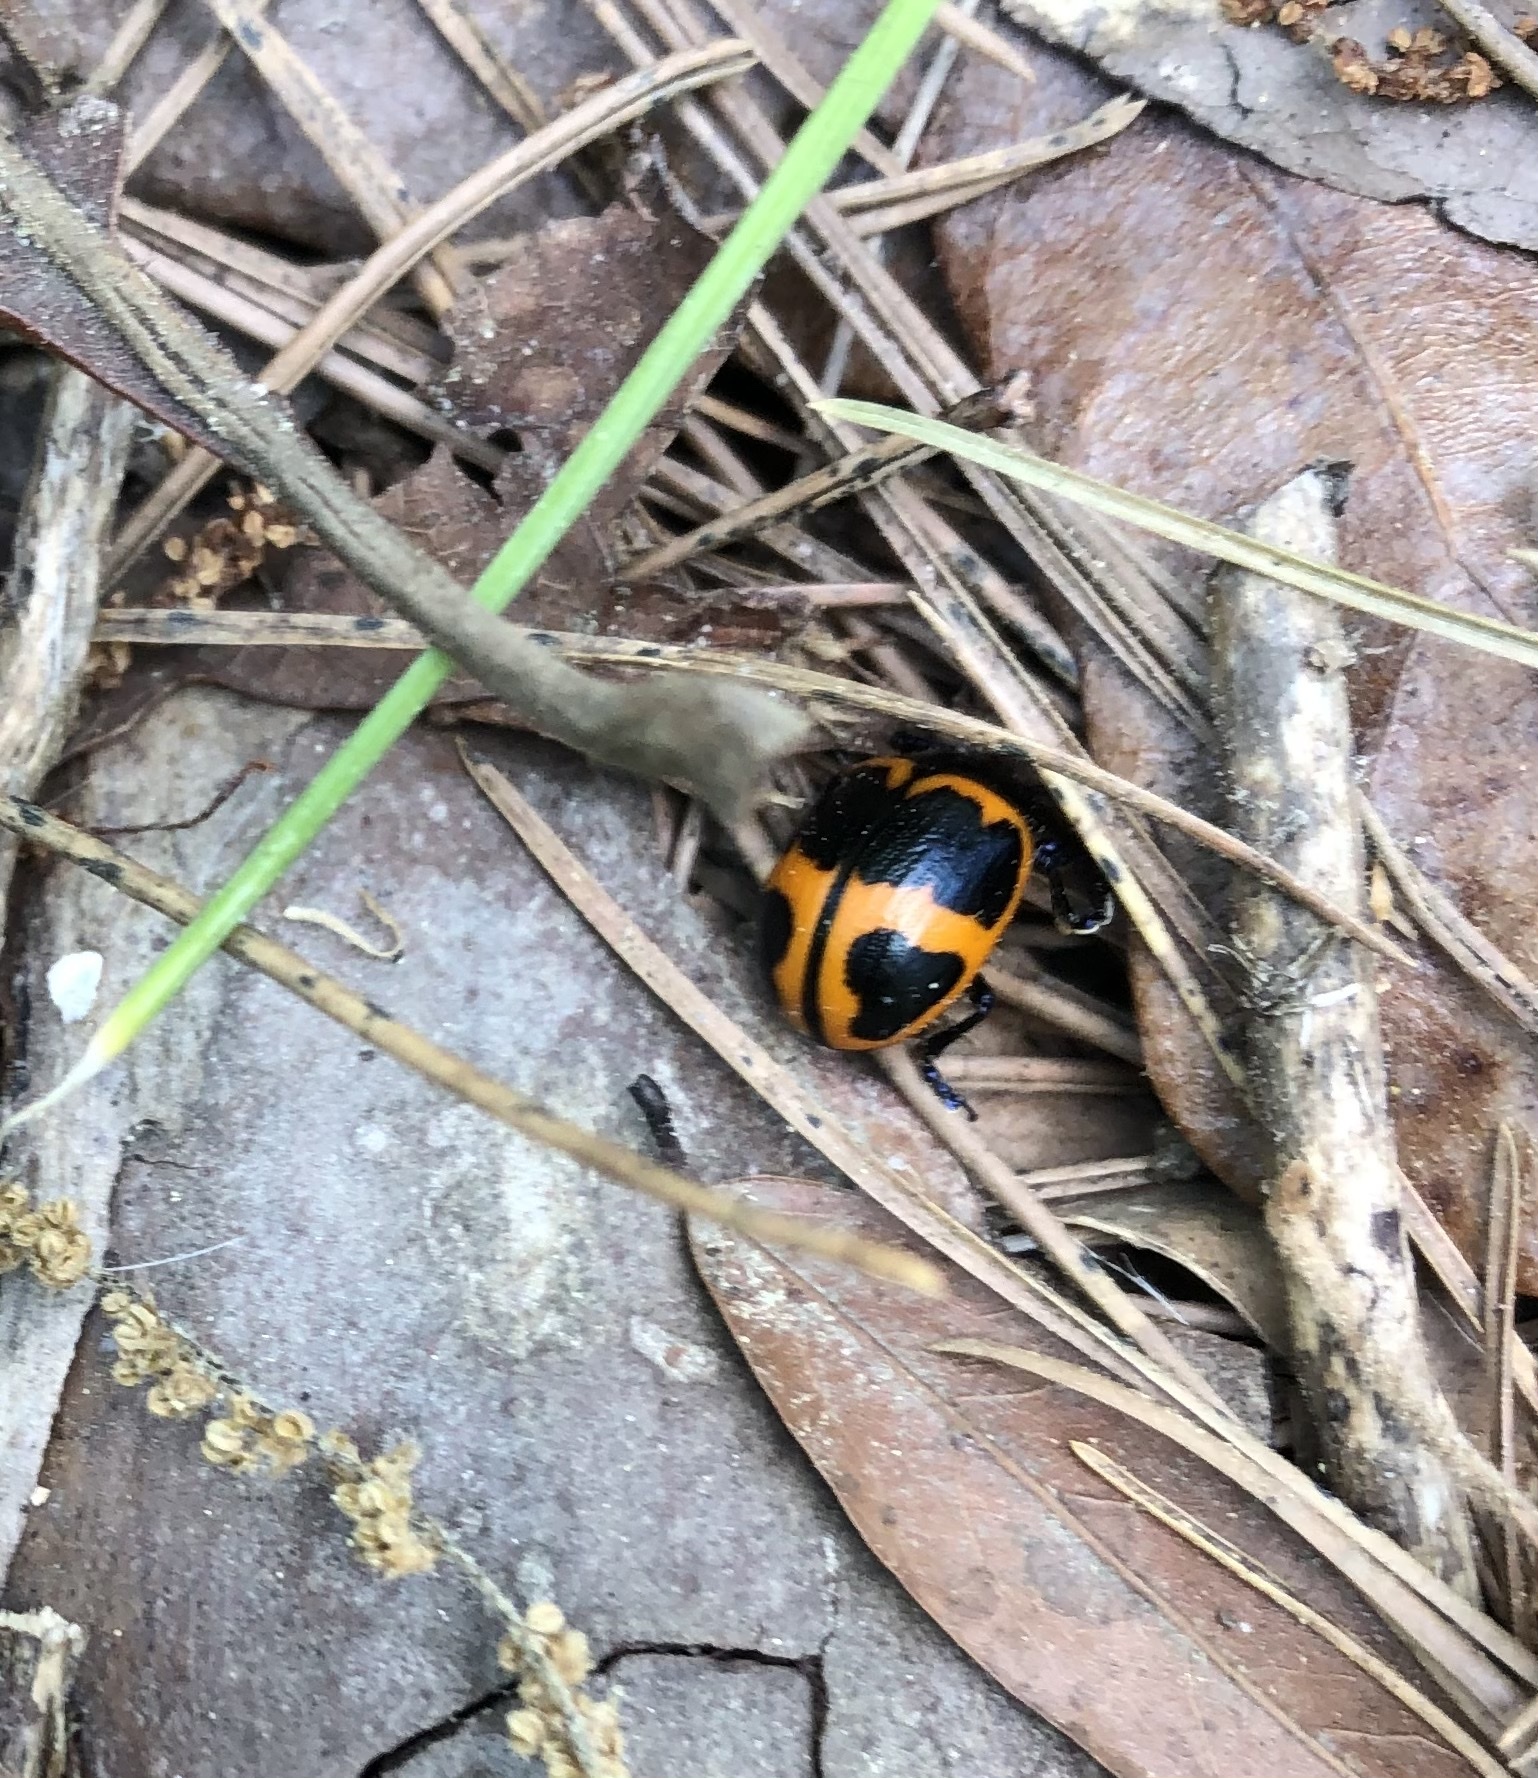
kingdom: Animalia
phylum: Arthropoda
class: Insecta
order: Coleoptera
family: Chrysomelidae
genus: Labidomera
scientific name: Labidomera clivicollis
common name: Swamp milkweed leaf beetle
